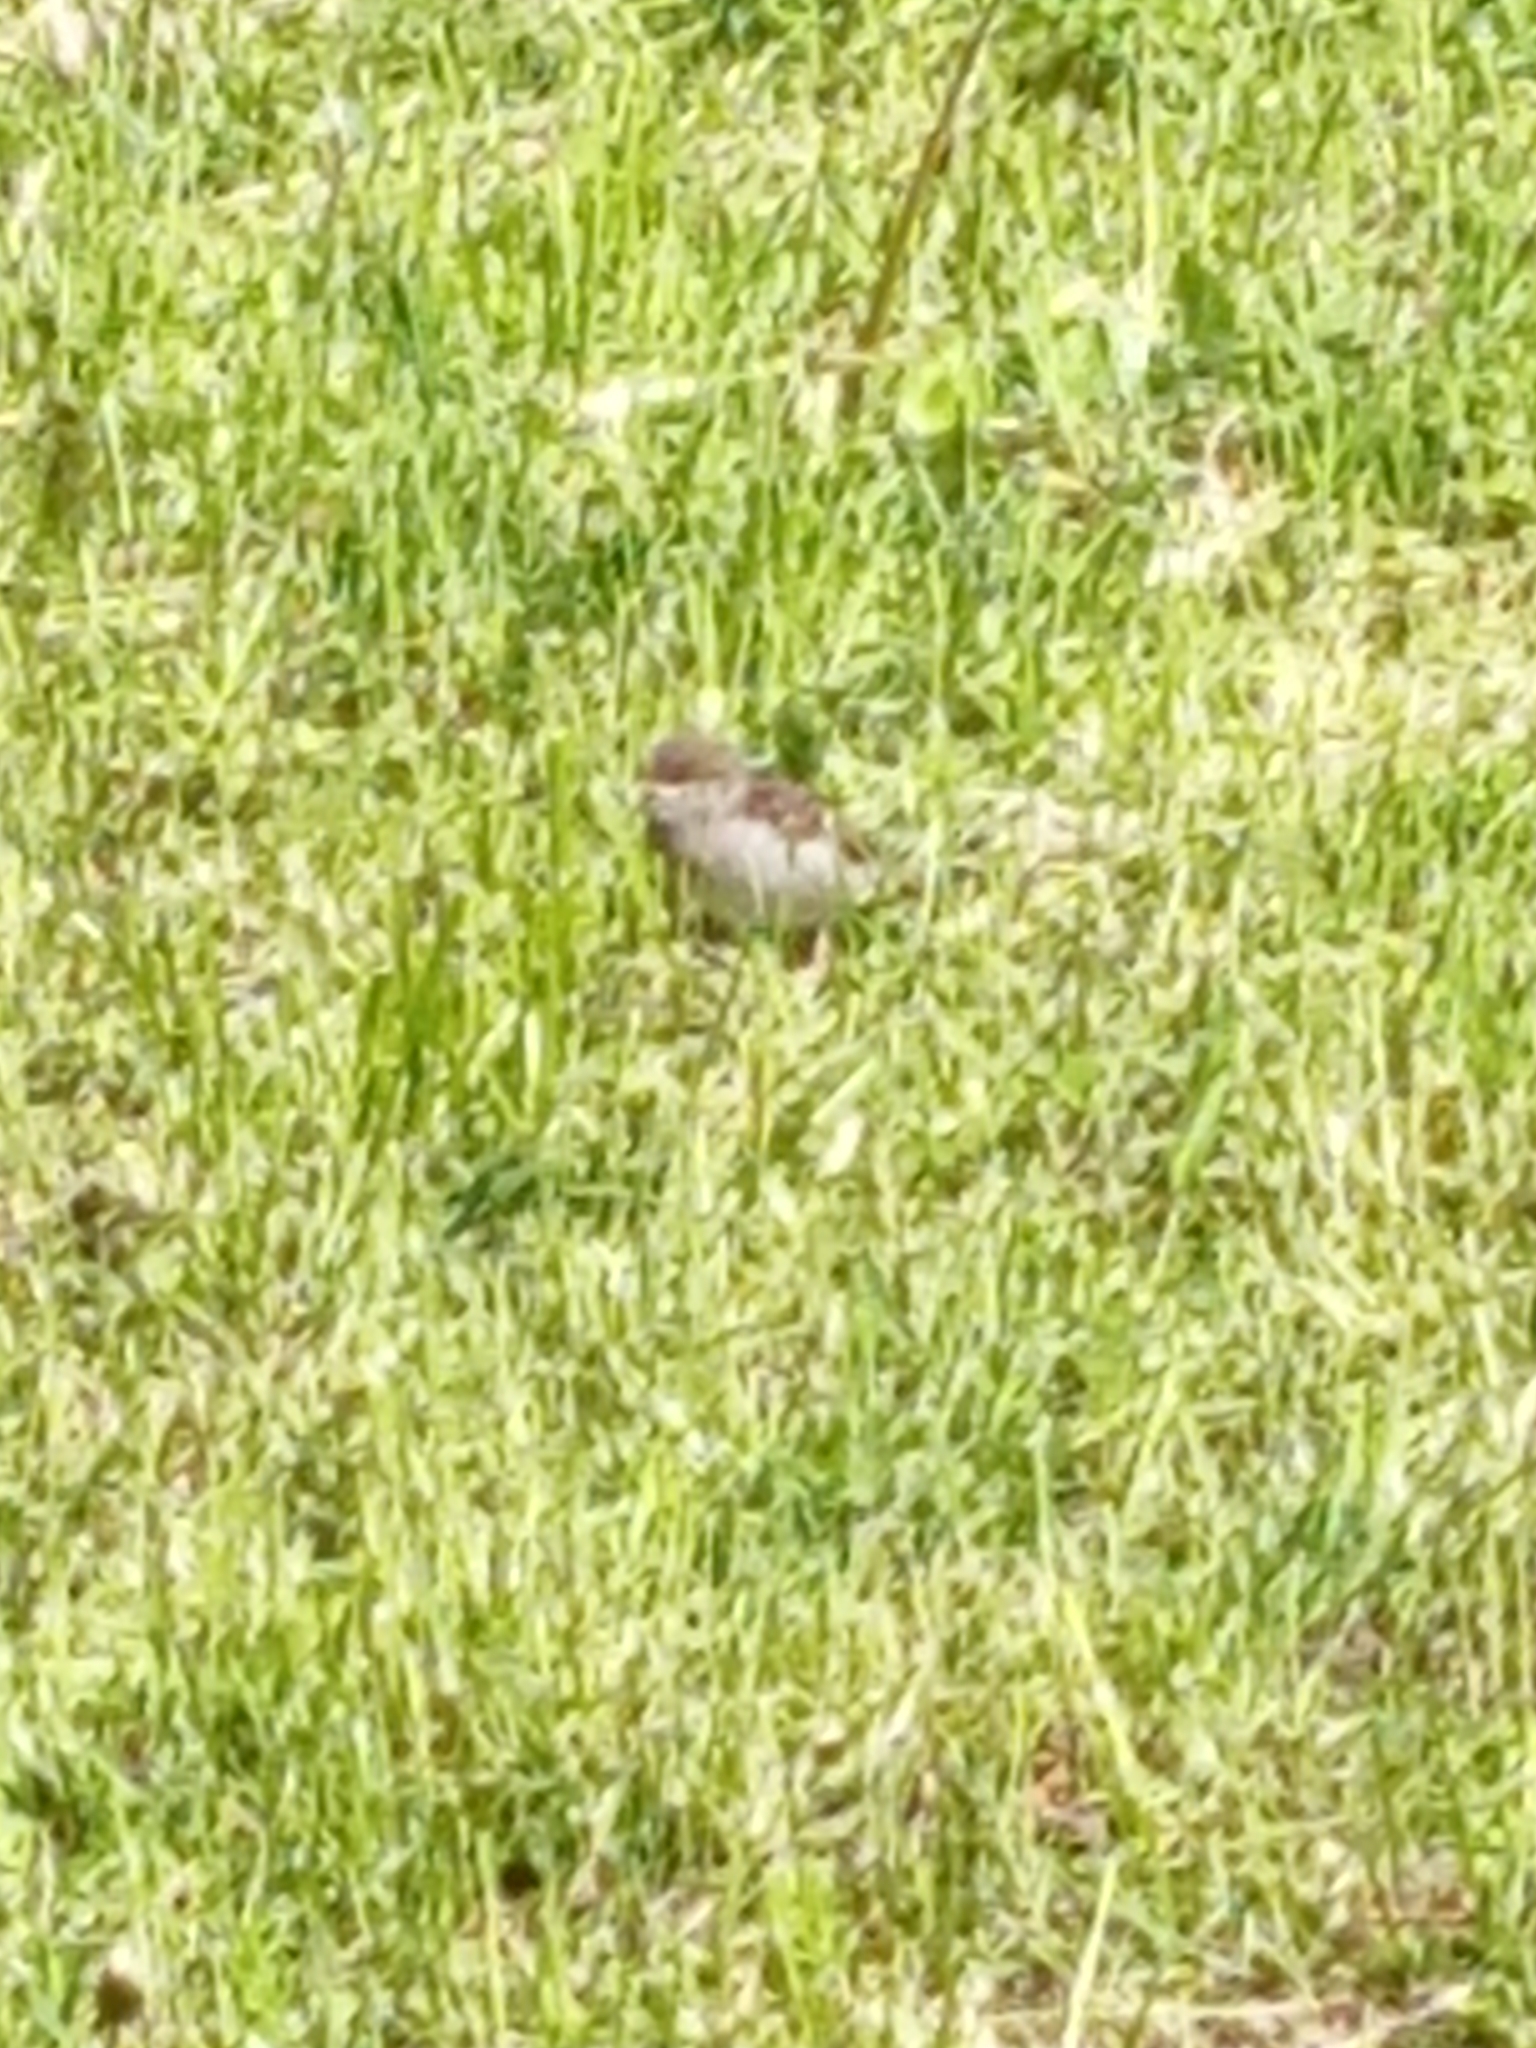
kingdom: Animalia
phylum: Chordata
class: Aves
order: Passeriformes
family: Passeridae
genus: Passer
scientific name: Passer domesticus
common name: House sparrow
